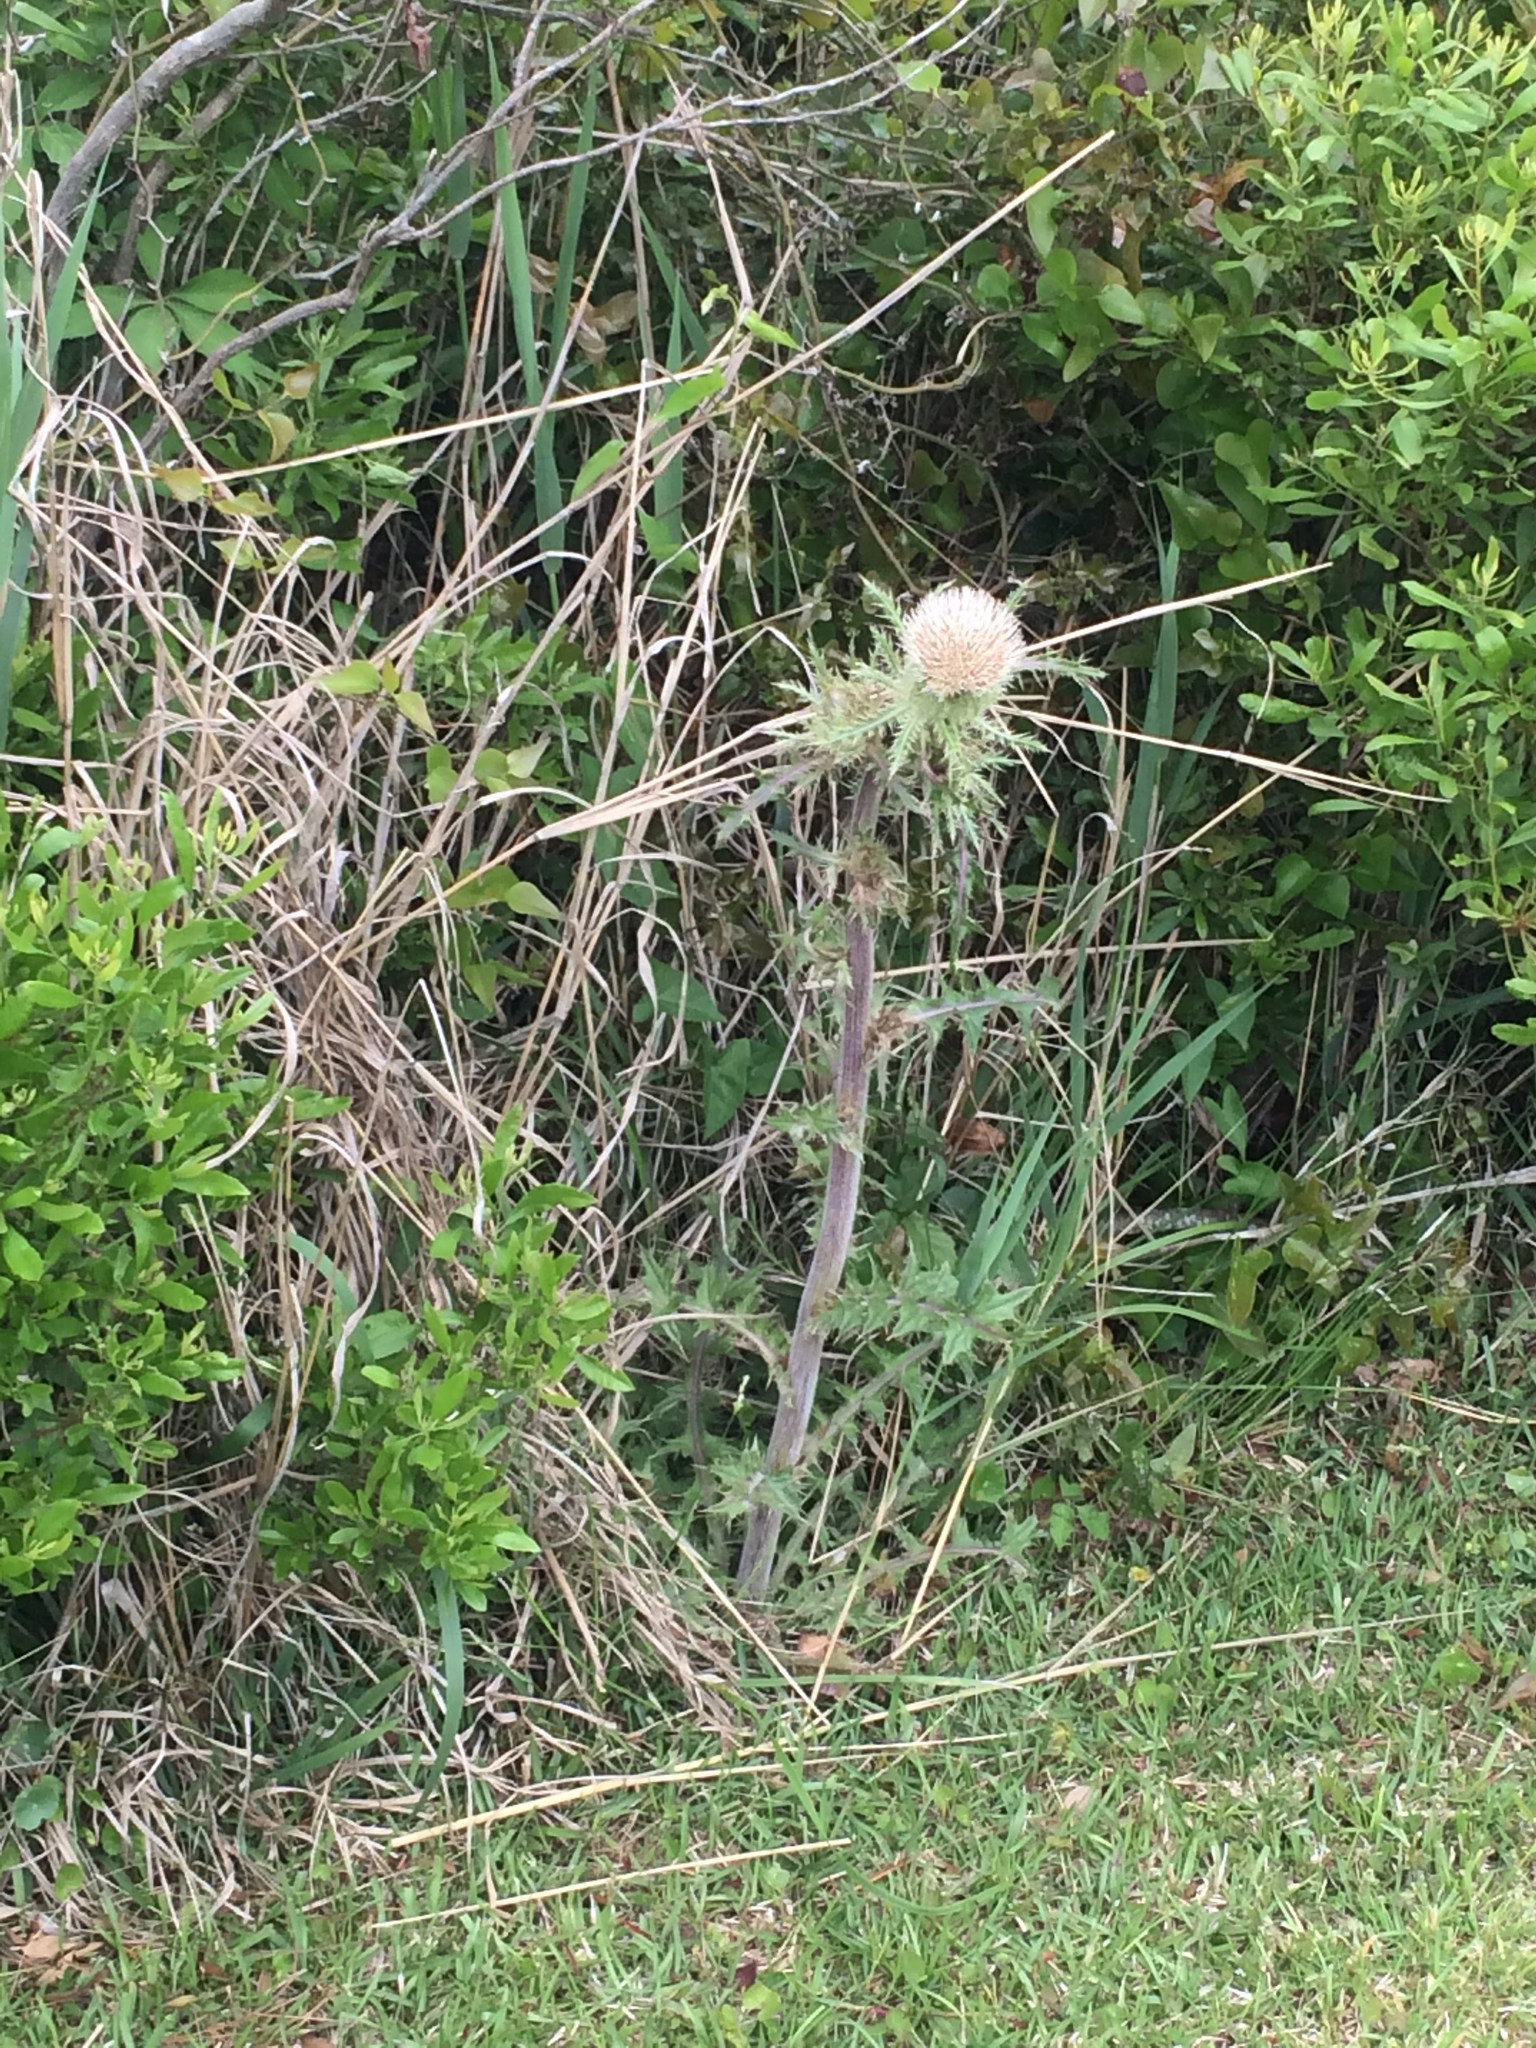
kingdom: Plantae
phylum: Tracheophyta
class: Magnoliopsida
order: Asterales
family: Asteraceae
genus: Cirsium
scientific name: Cirsium horridulum
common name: Bristly thistle
